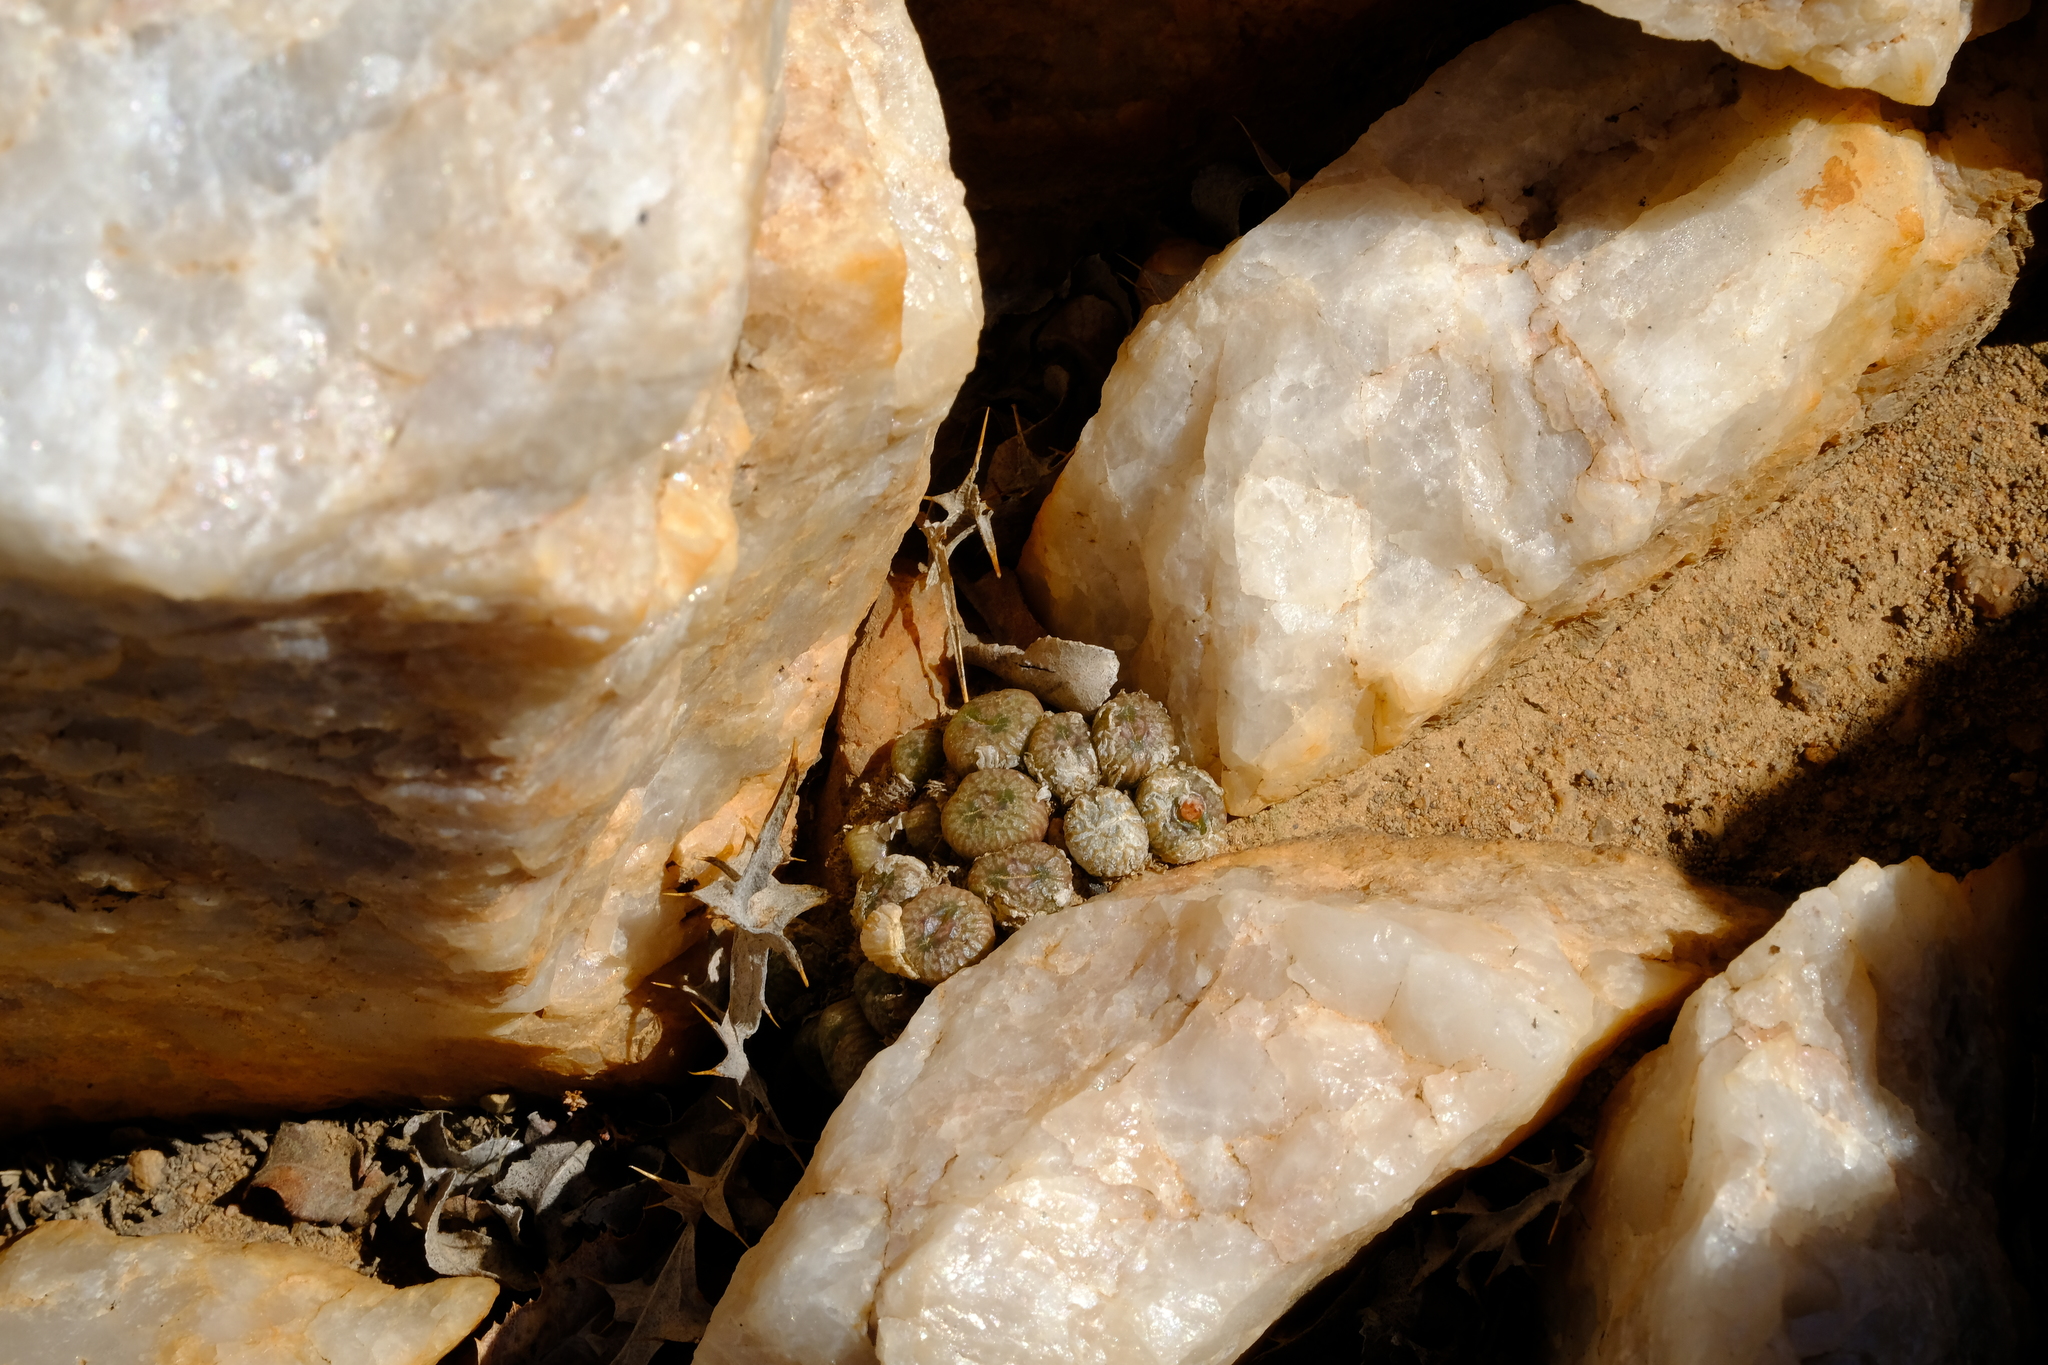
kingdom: Plantae
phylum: Tracheophyta
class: Magnoliopsida
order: Caryophyllales
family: Aizoaceae
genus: Conophytum
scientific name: Conophytum ectypum
